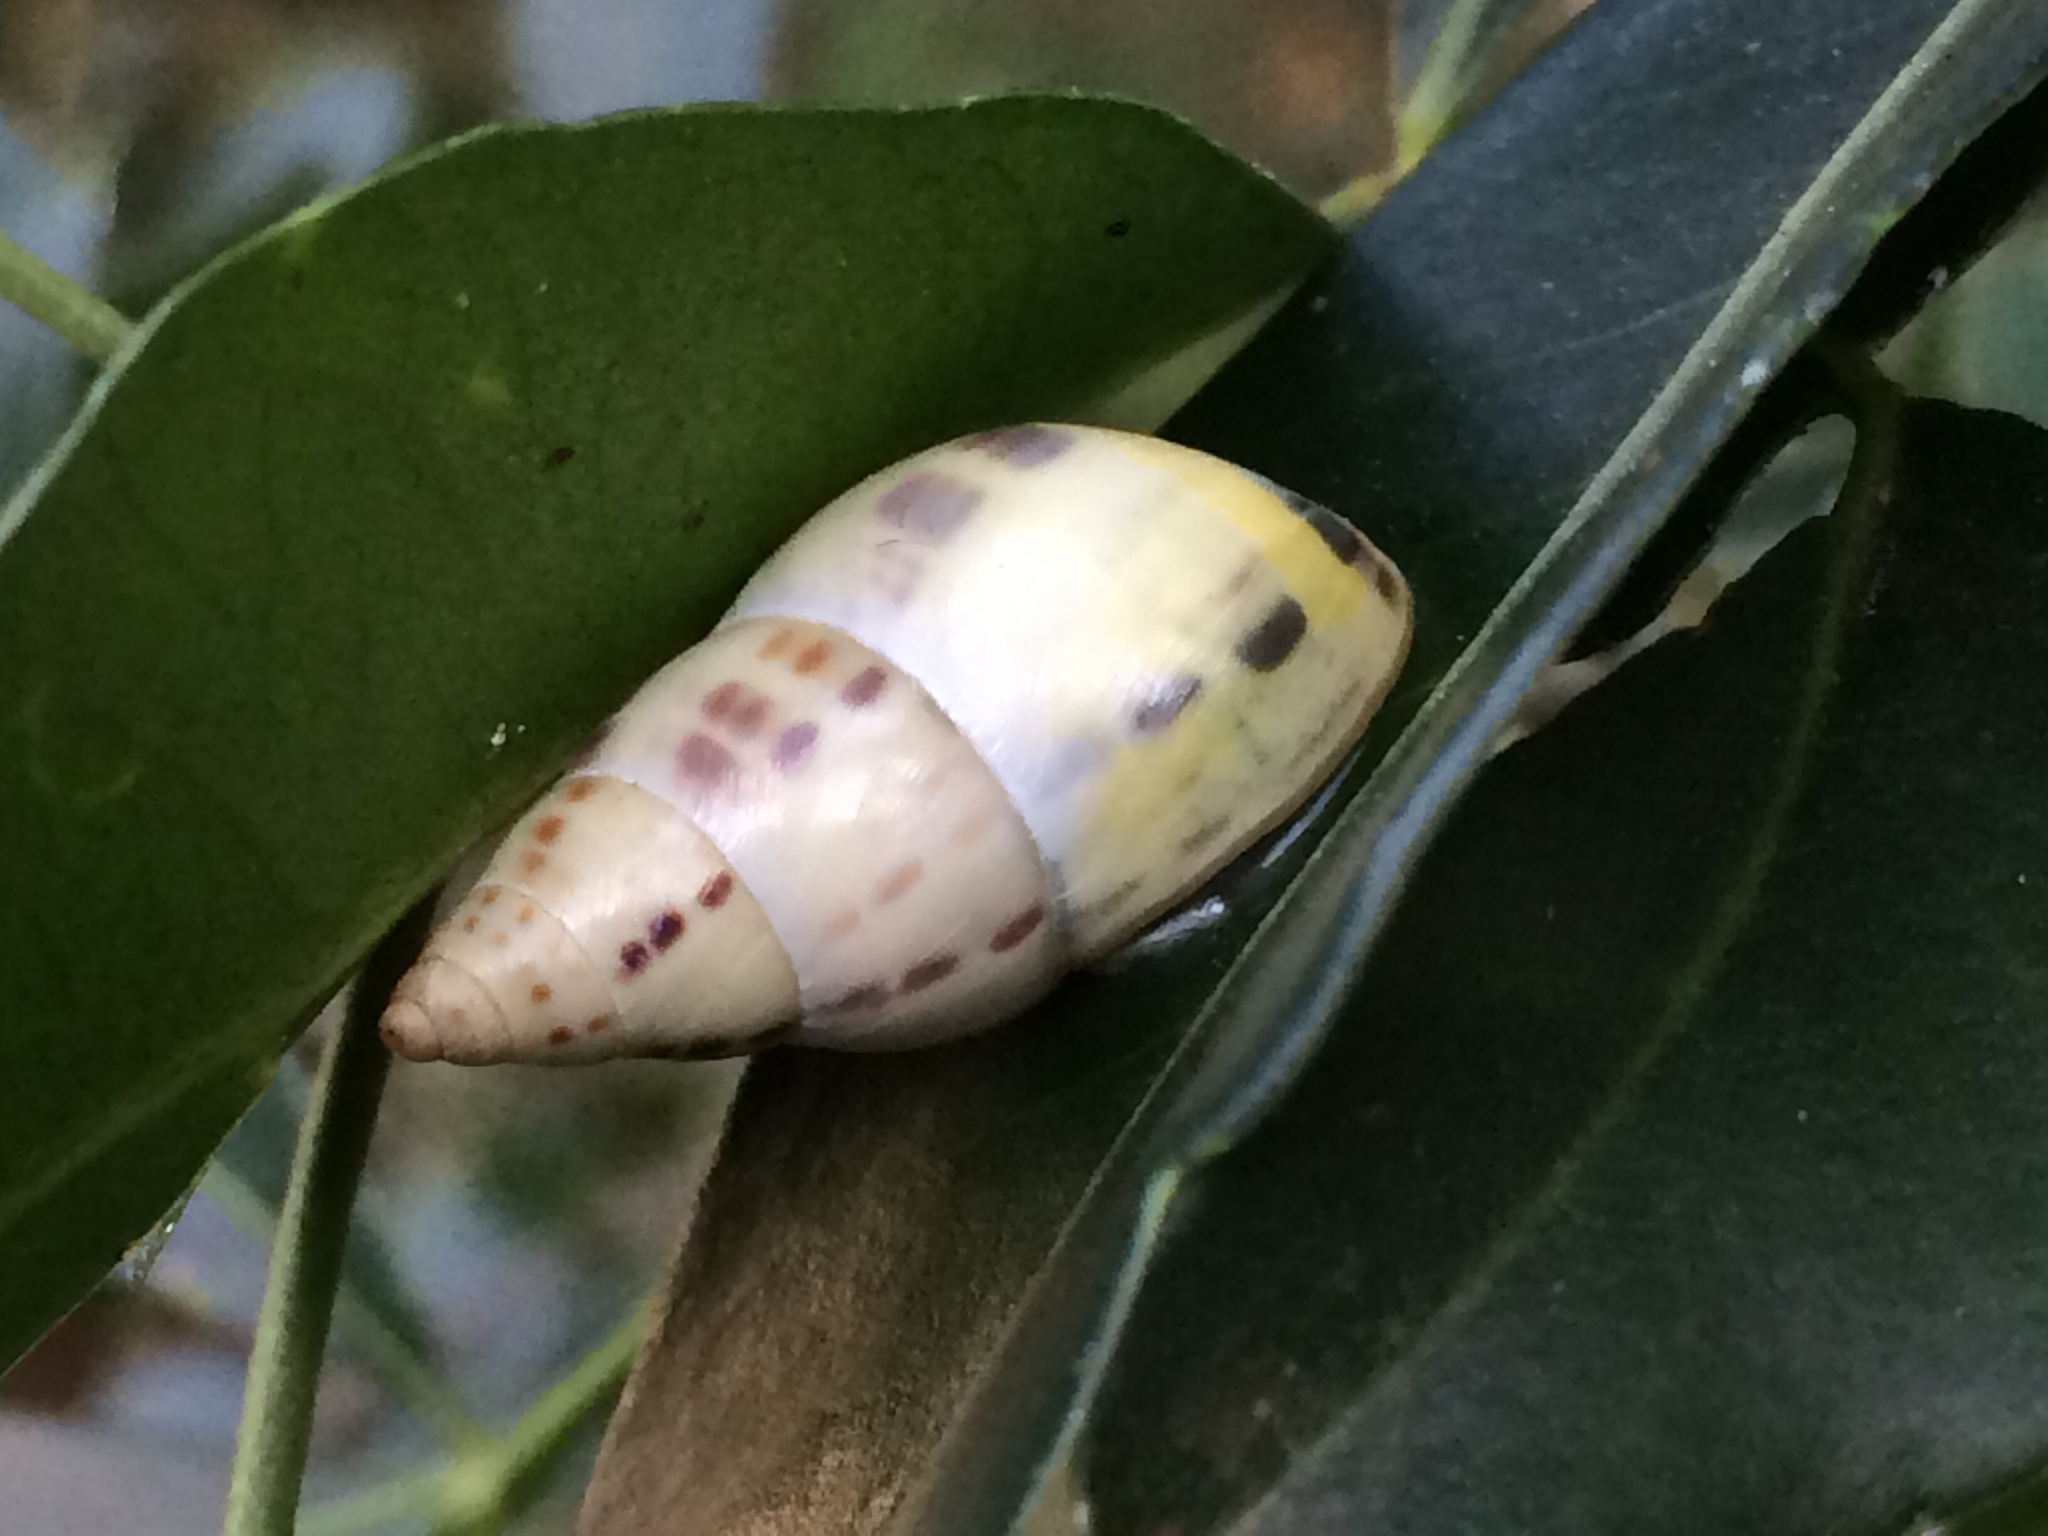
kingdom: Animalia
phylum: Mollusca
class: Gastropoda
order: Stylommatophora
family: Bulimulidae
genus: Drymaeus
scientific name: Drymaeus
